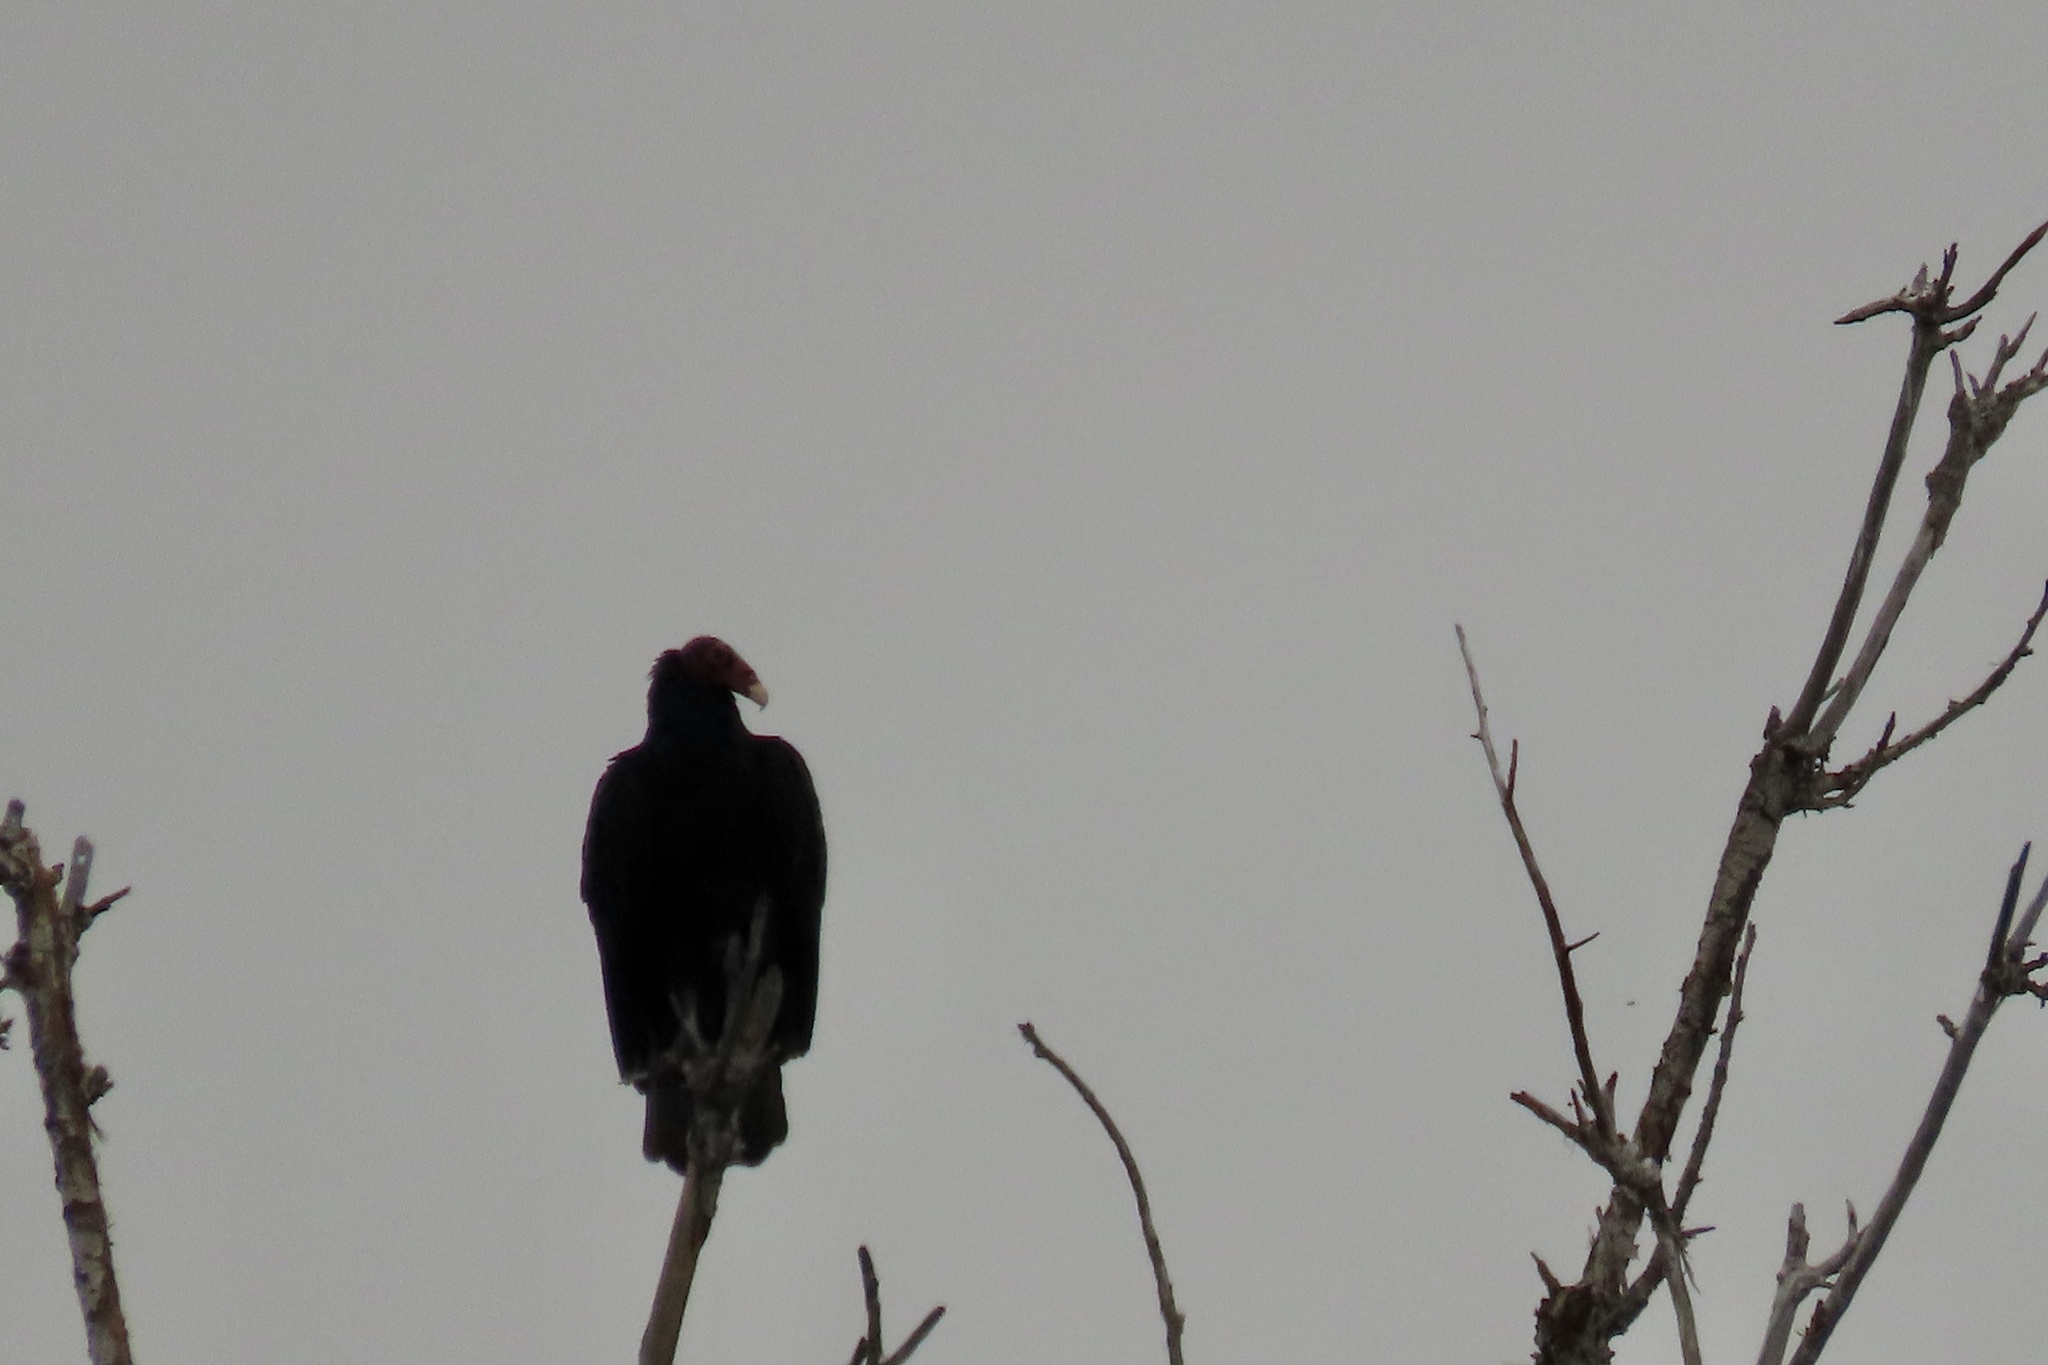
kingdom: Animalia
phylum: Chordata
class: Aves
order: Accipitriformes
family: Cathartidae
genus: Cathartes
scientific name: Cathartes aura
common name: Turkey vulture
